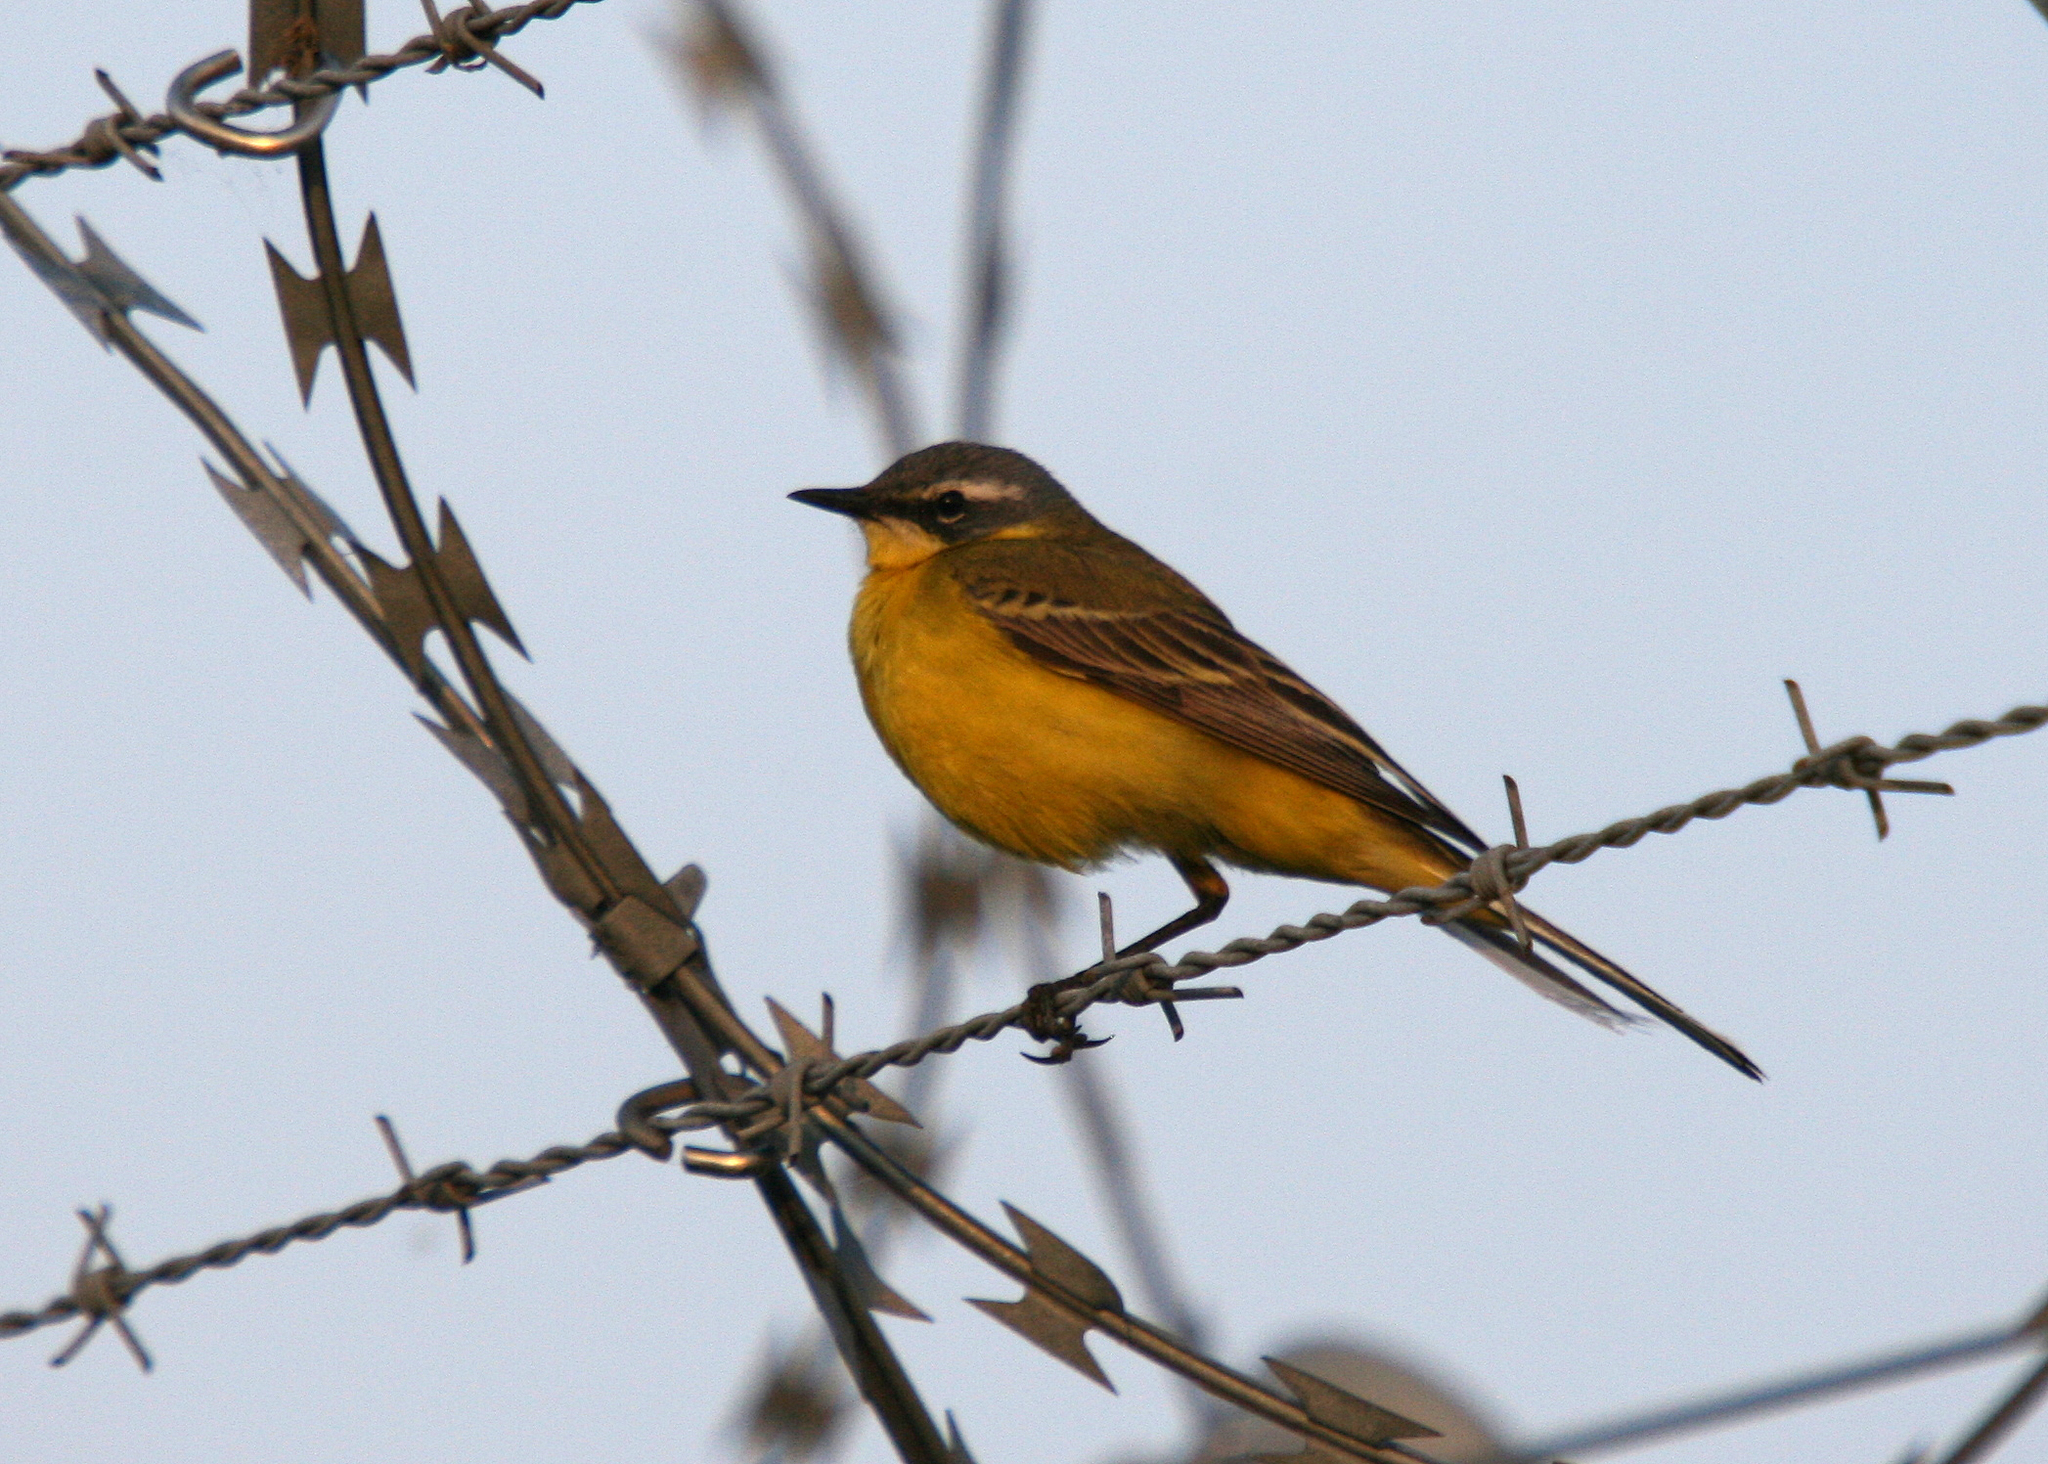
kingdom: Animalia
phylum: Chordata
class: Aves
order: Passeriformes
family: Motacillidae
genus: Motacilla
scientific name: Motacilla flava
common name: Western yellow wagtail
